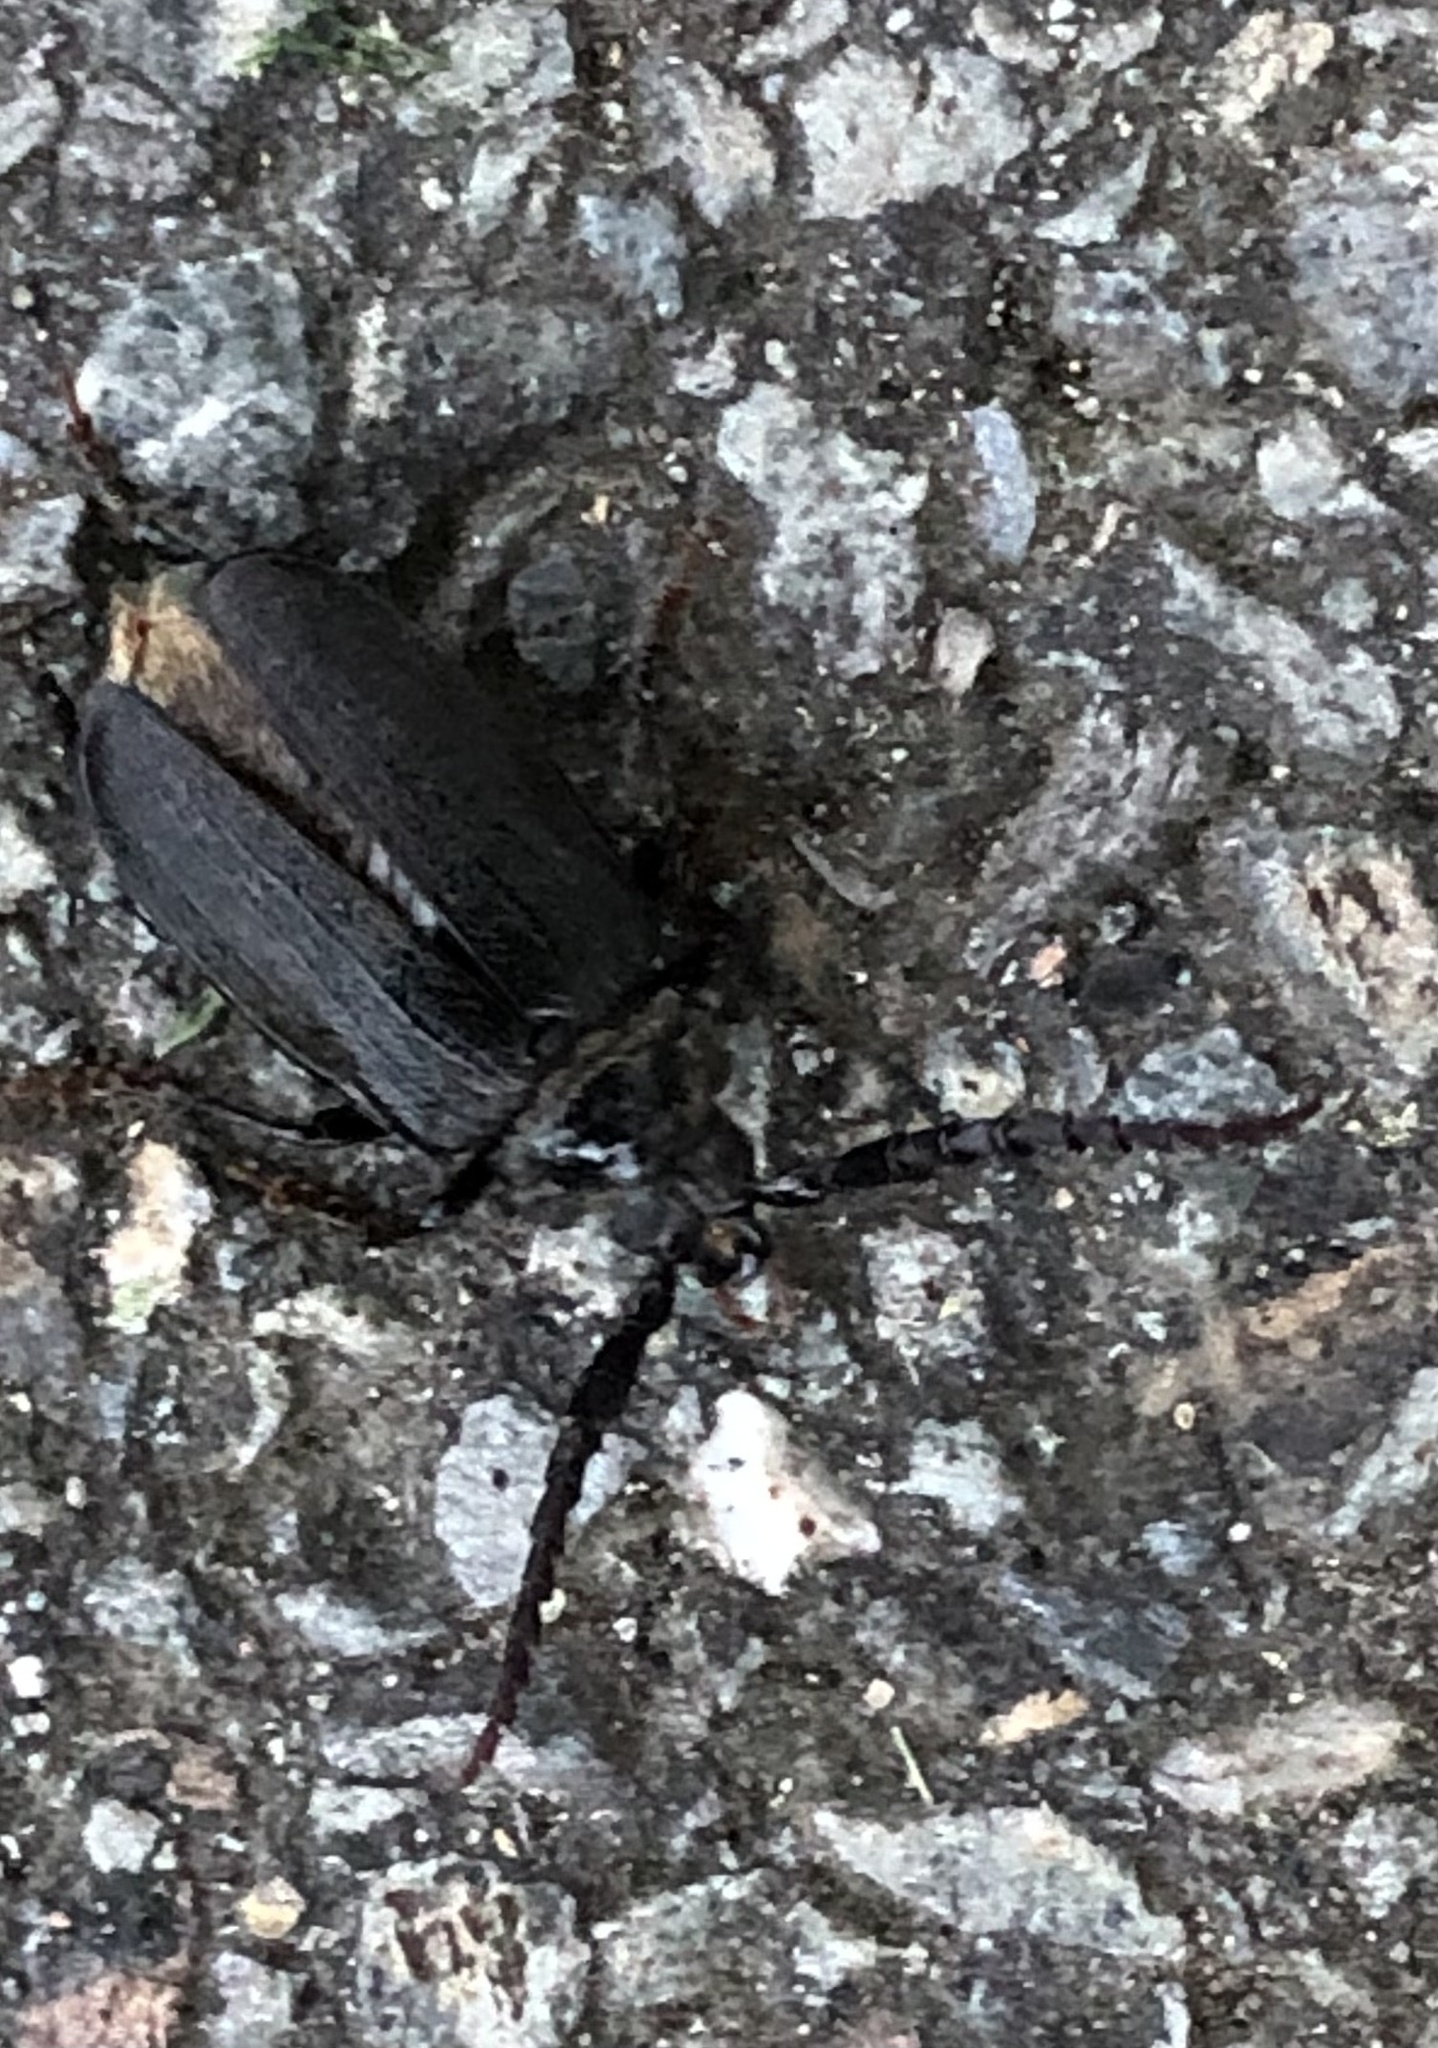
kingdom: Animalia
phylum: Arthropoda
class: Insecta
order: Coleoptera
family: Cerambycidae
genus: Prionus
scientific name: Prionus laticollis
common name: Broad necked prionus
